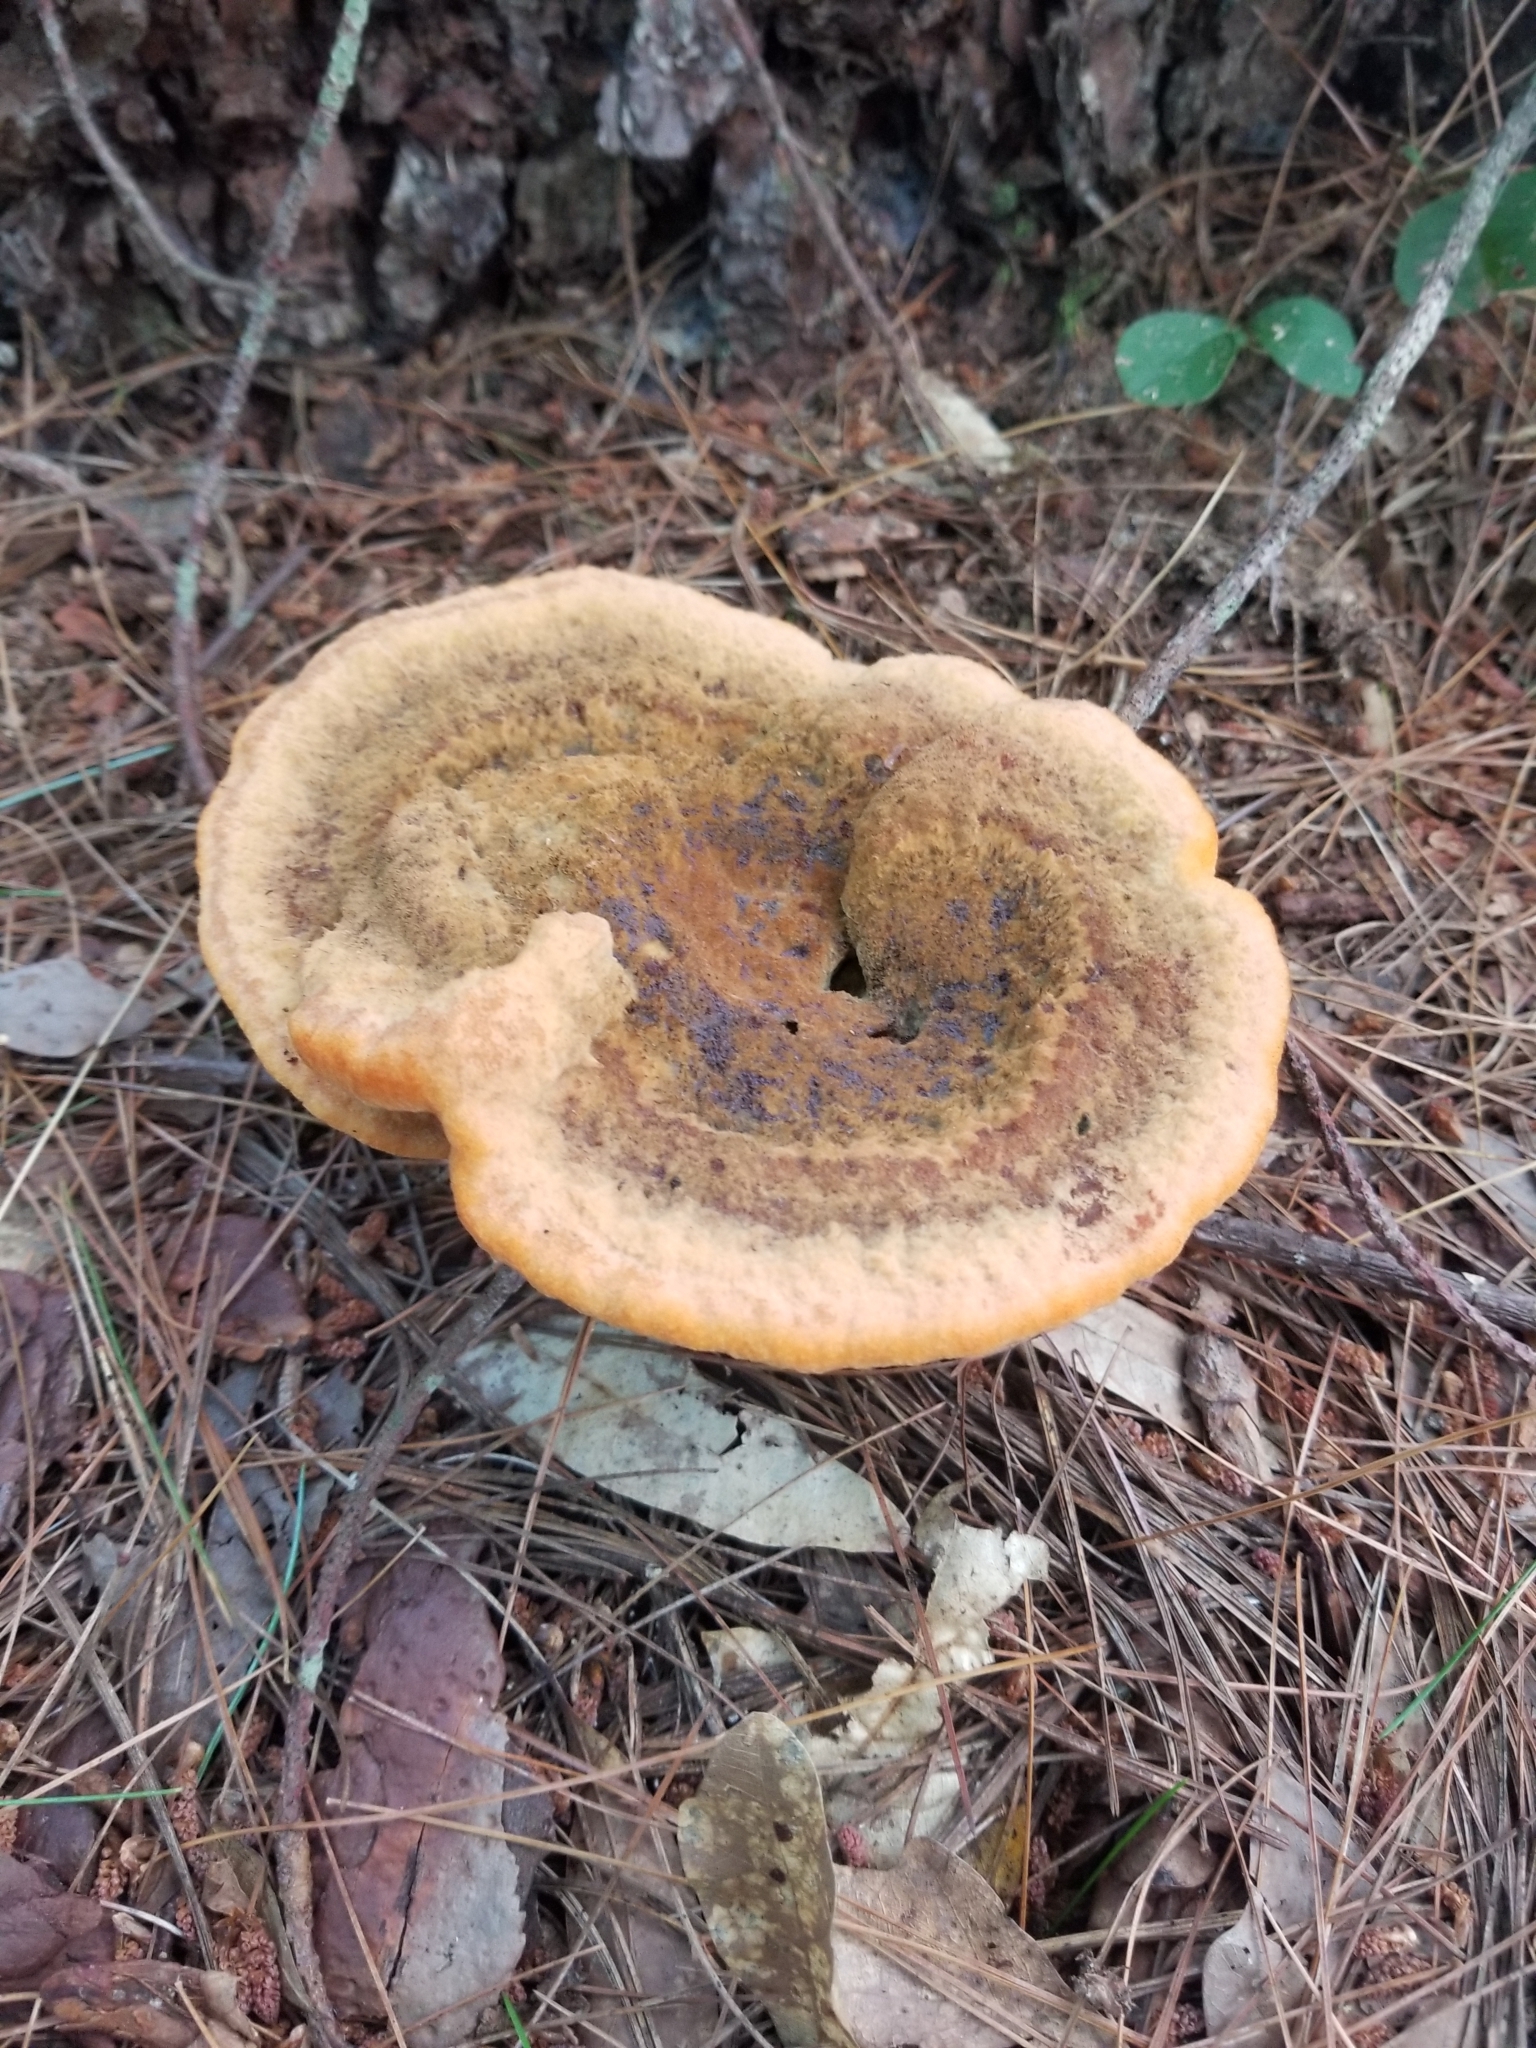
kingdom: Fungi
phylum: Basidiomycota
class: Agaricomycetes
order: Polyporales
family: Laetiporaceae
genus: Phaeolus
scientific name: Phaeolus schweinitzii
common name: Dyer's mazegill
